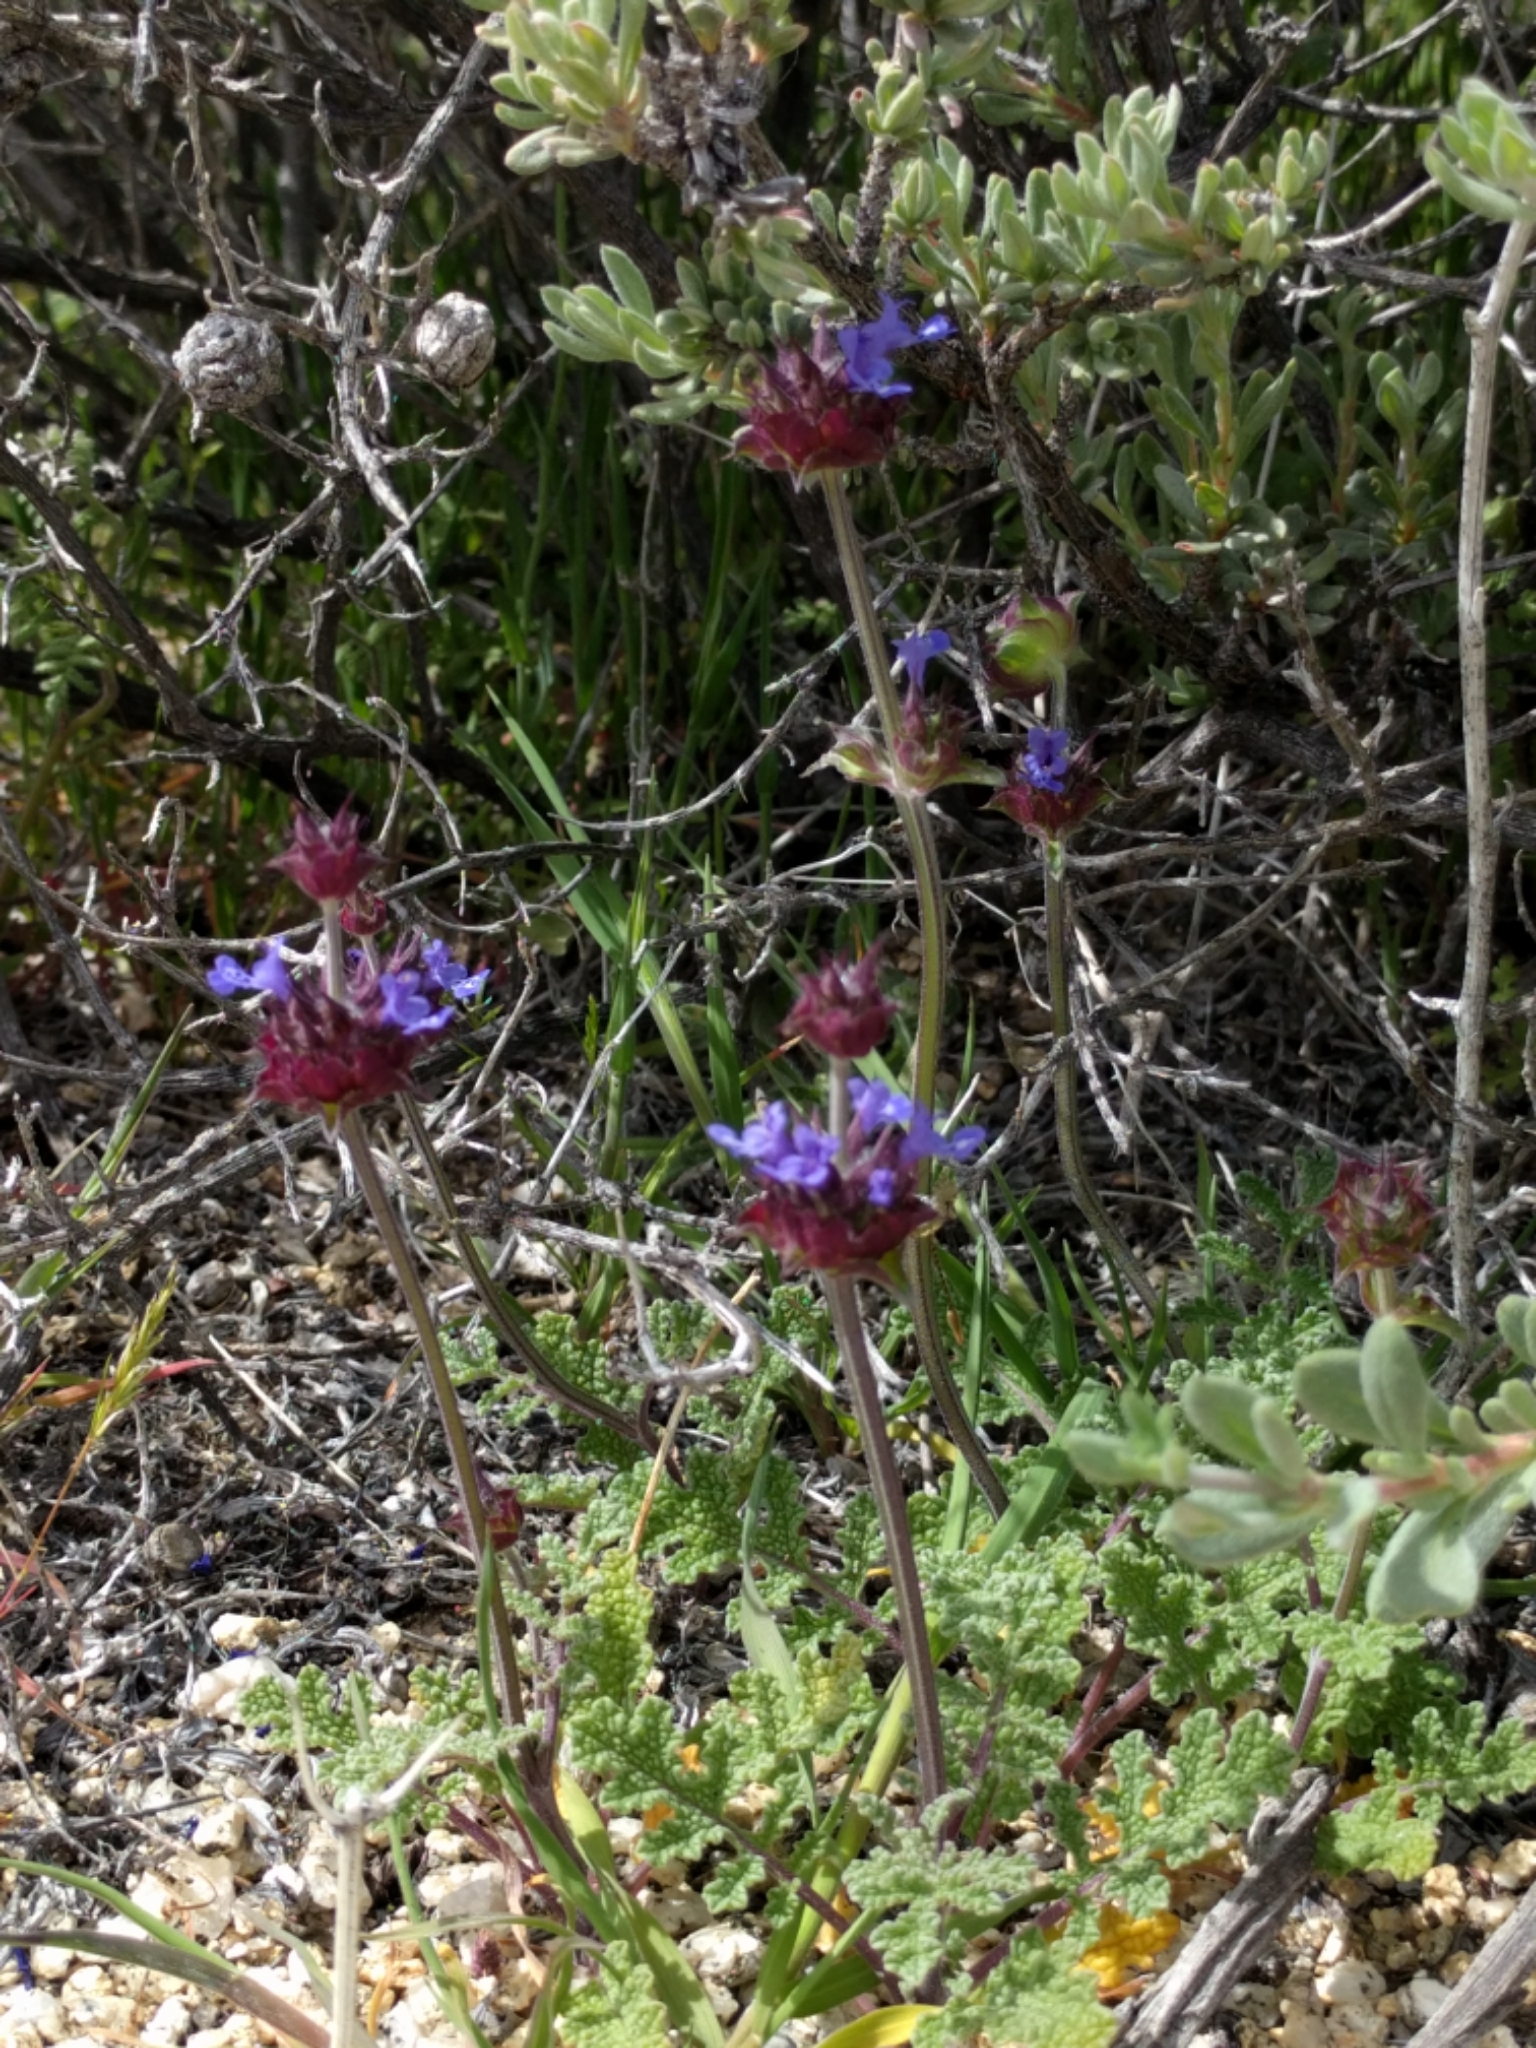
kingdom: Plantae
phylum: Tracheophyta
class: Magnoliopsida
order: Lamiales
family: Lamiaceae
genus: Salvia
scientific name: Salvia columbariae
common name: Chia
